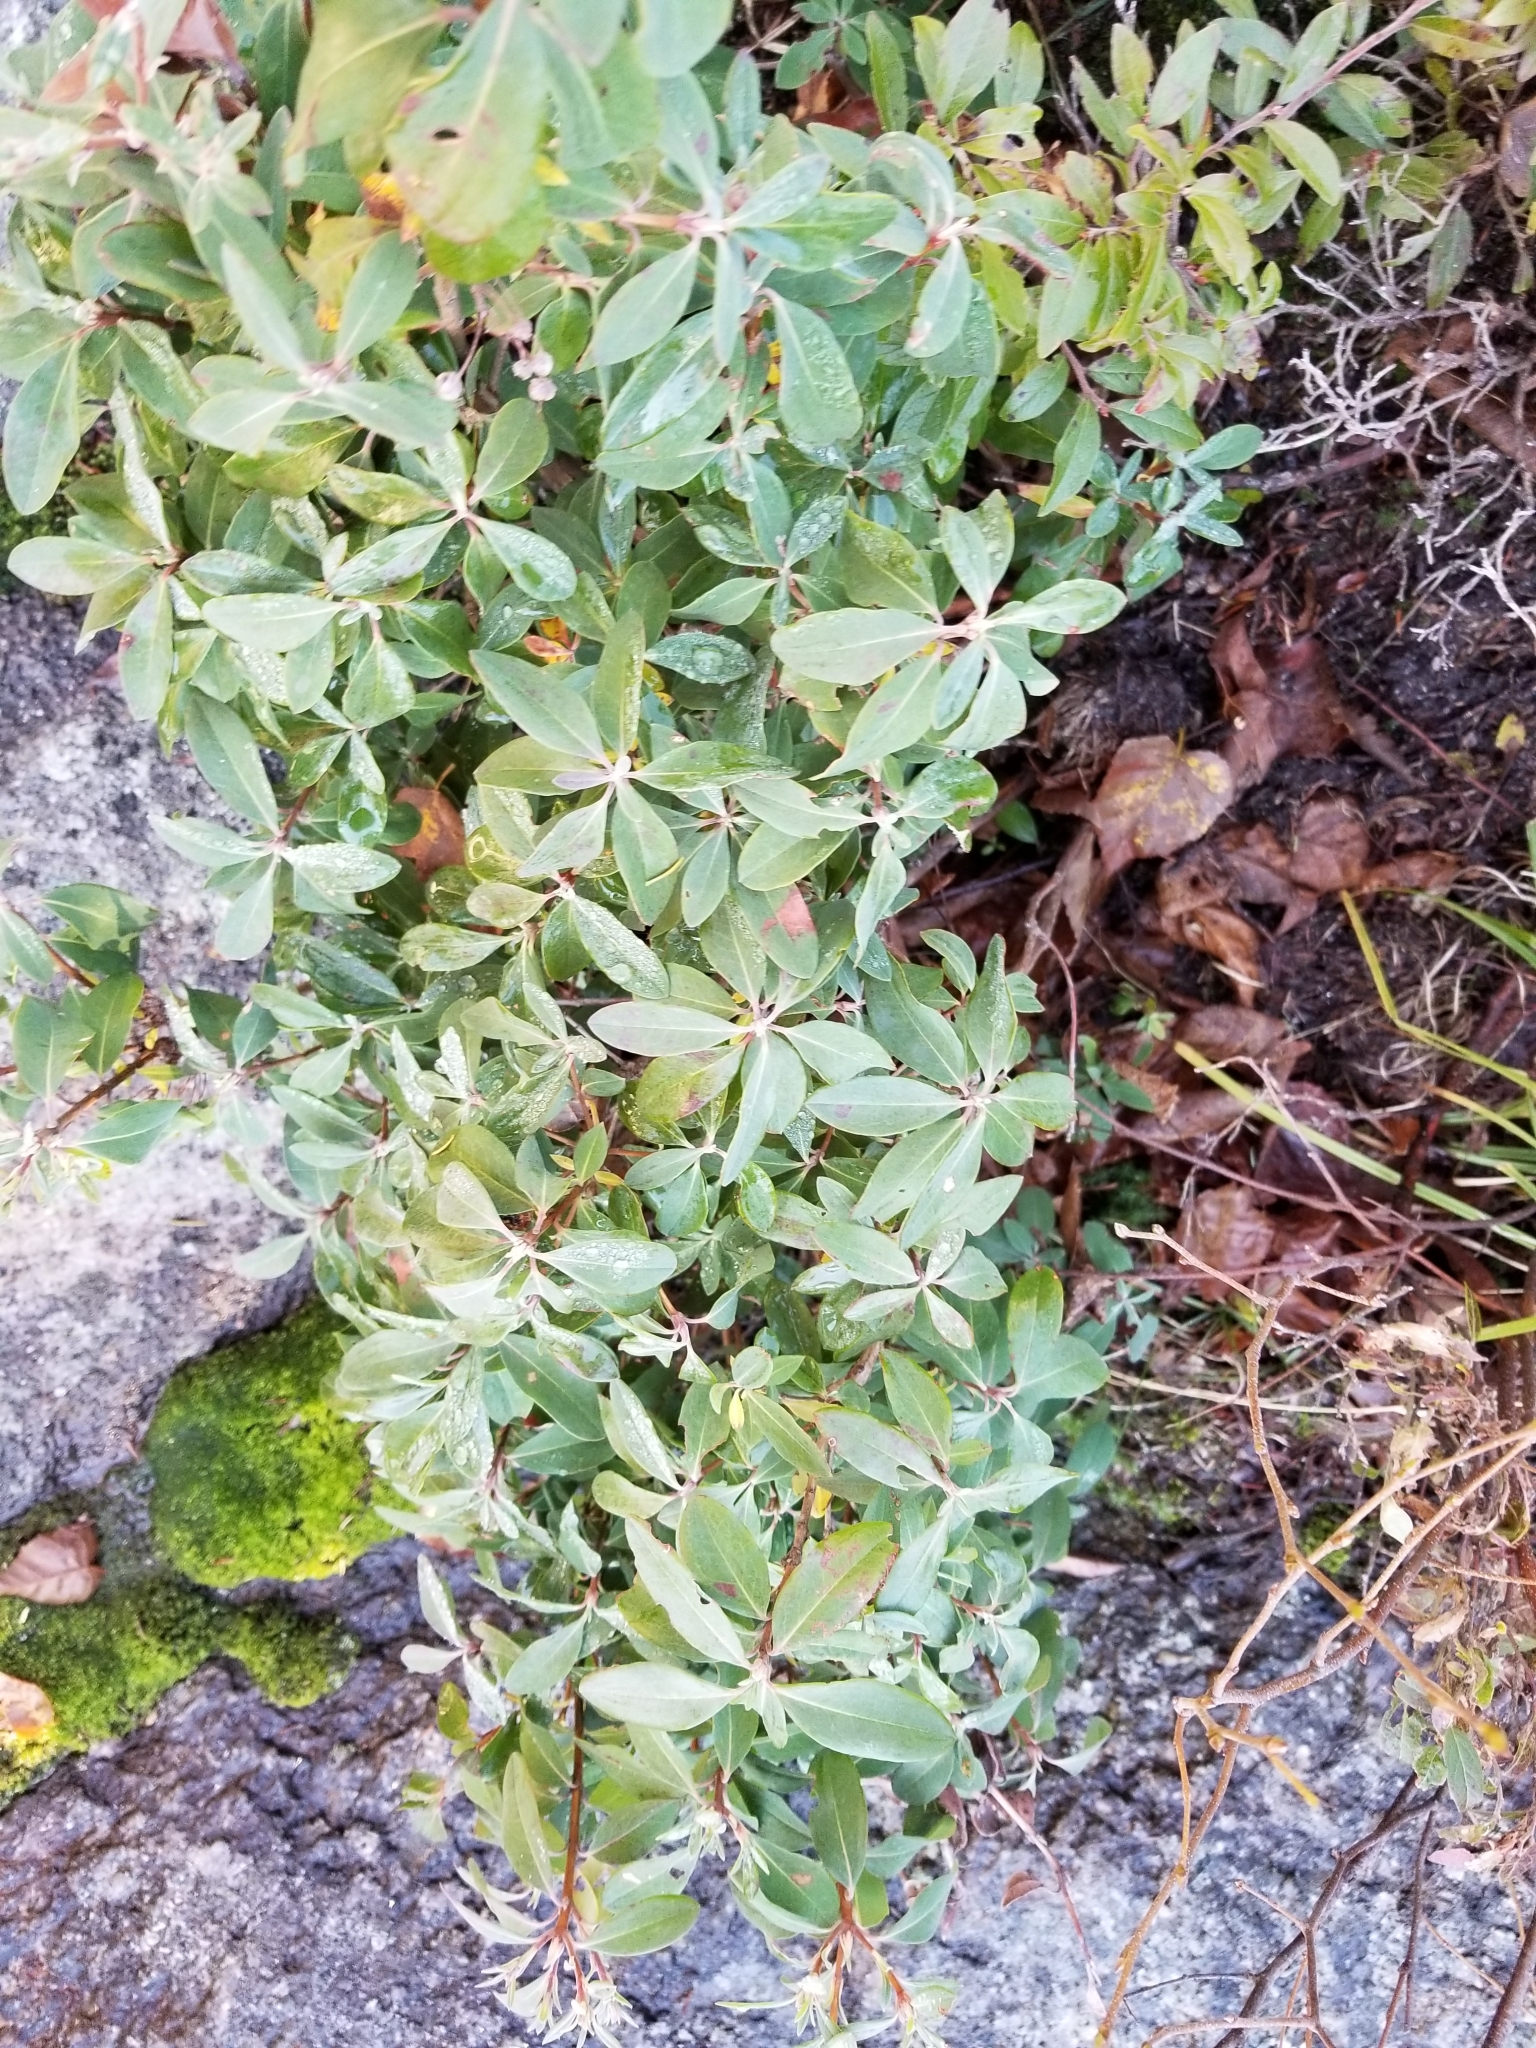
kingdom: Plantae
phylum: Tracheophyta
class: Magnoliopsida
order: Ericales
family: Ericaceae
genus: Kalmia
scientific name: Kalmia angustifolia
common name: Sheep-laurel
